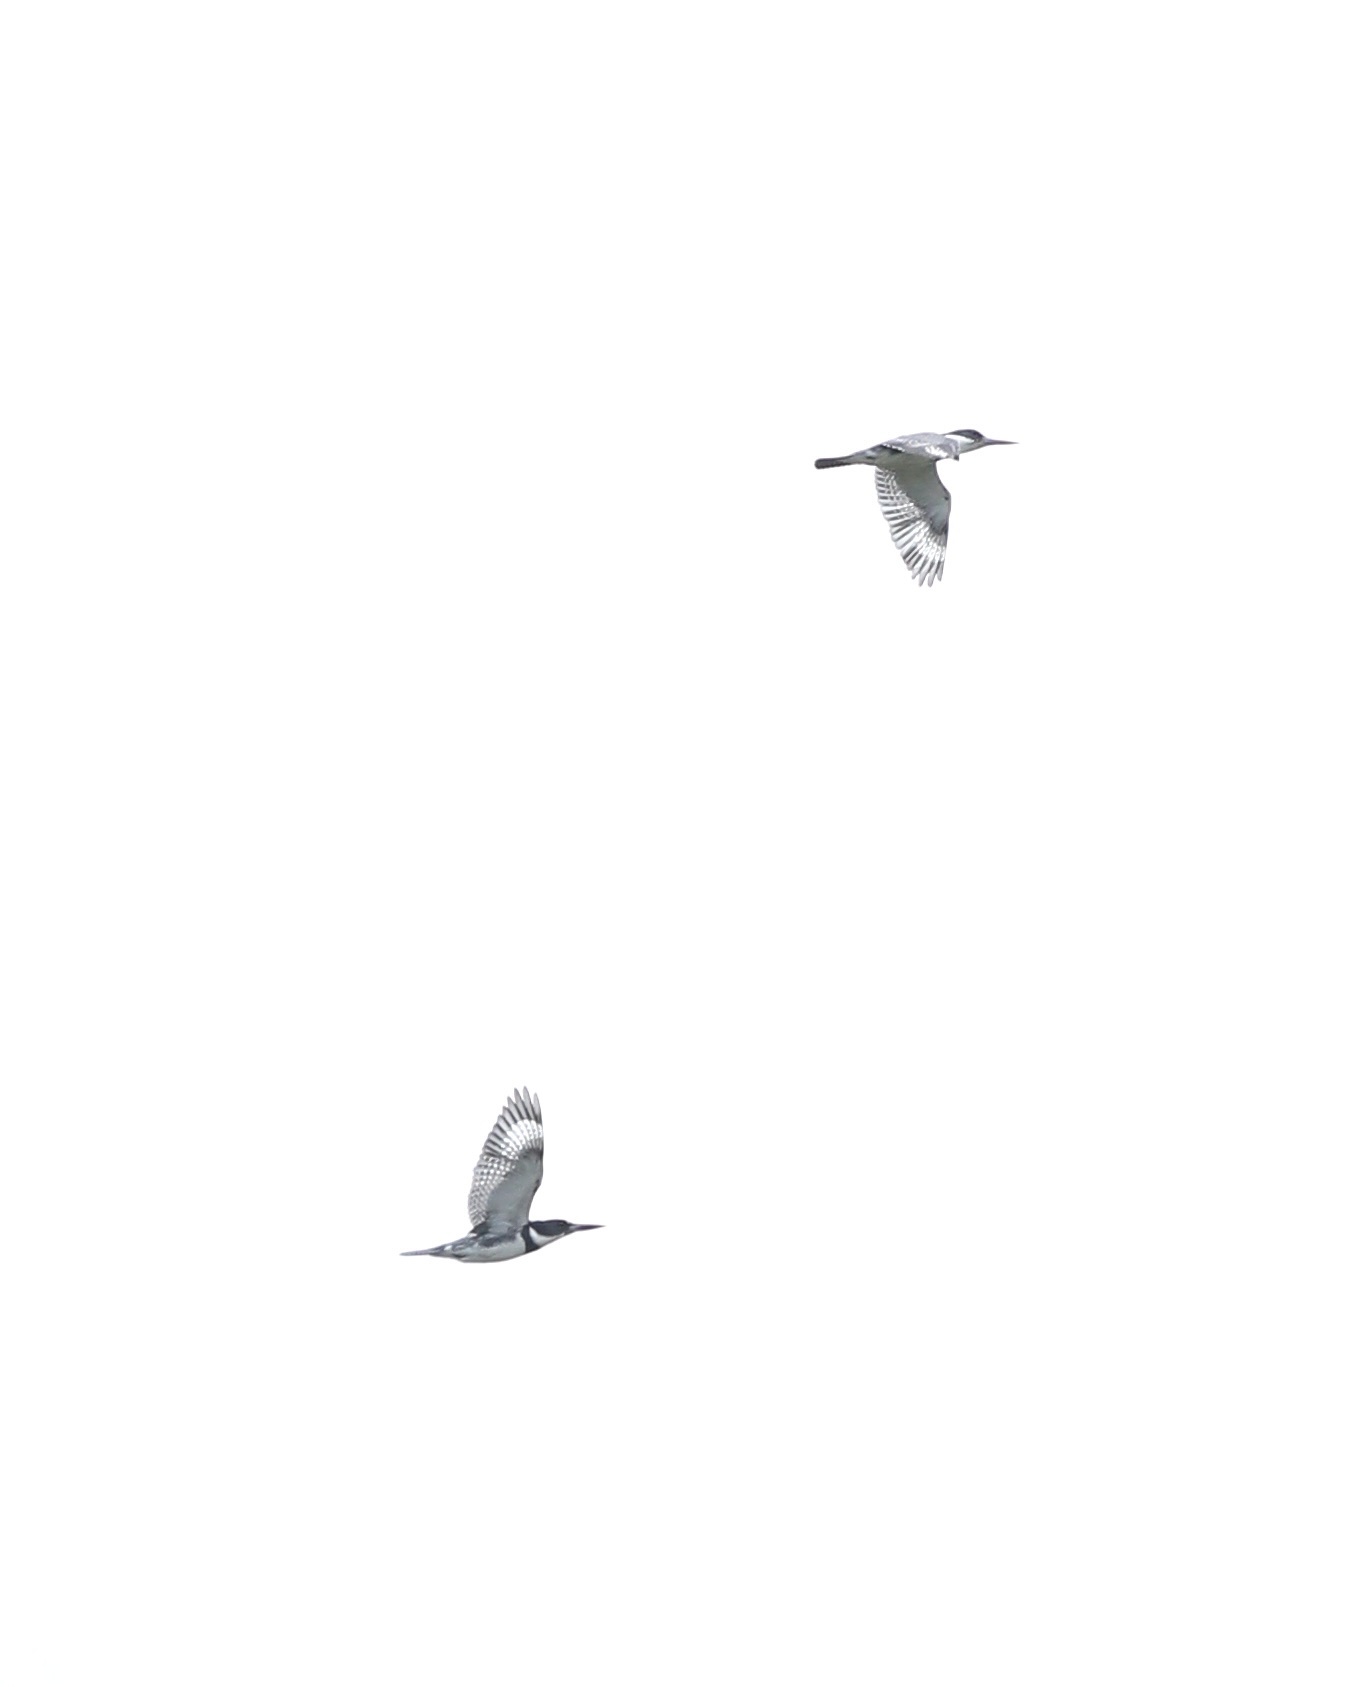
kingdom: Animalia
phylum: Chordata
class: Aves
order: Coraciiformes
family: Alcedinidae
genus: Megaceryle
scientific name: Megaceryle alcyon
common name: Belted kingfisher
